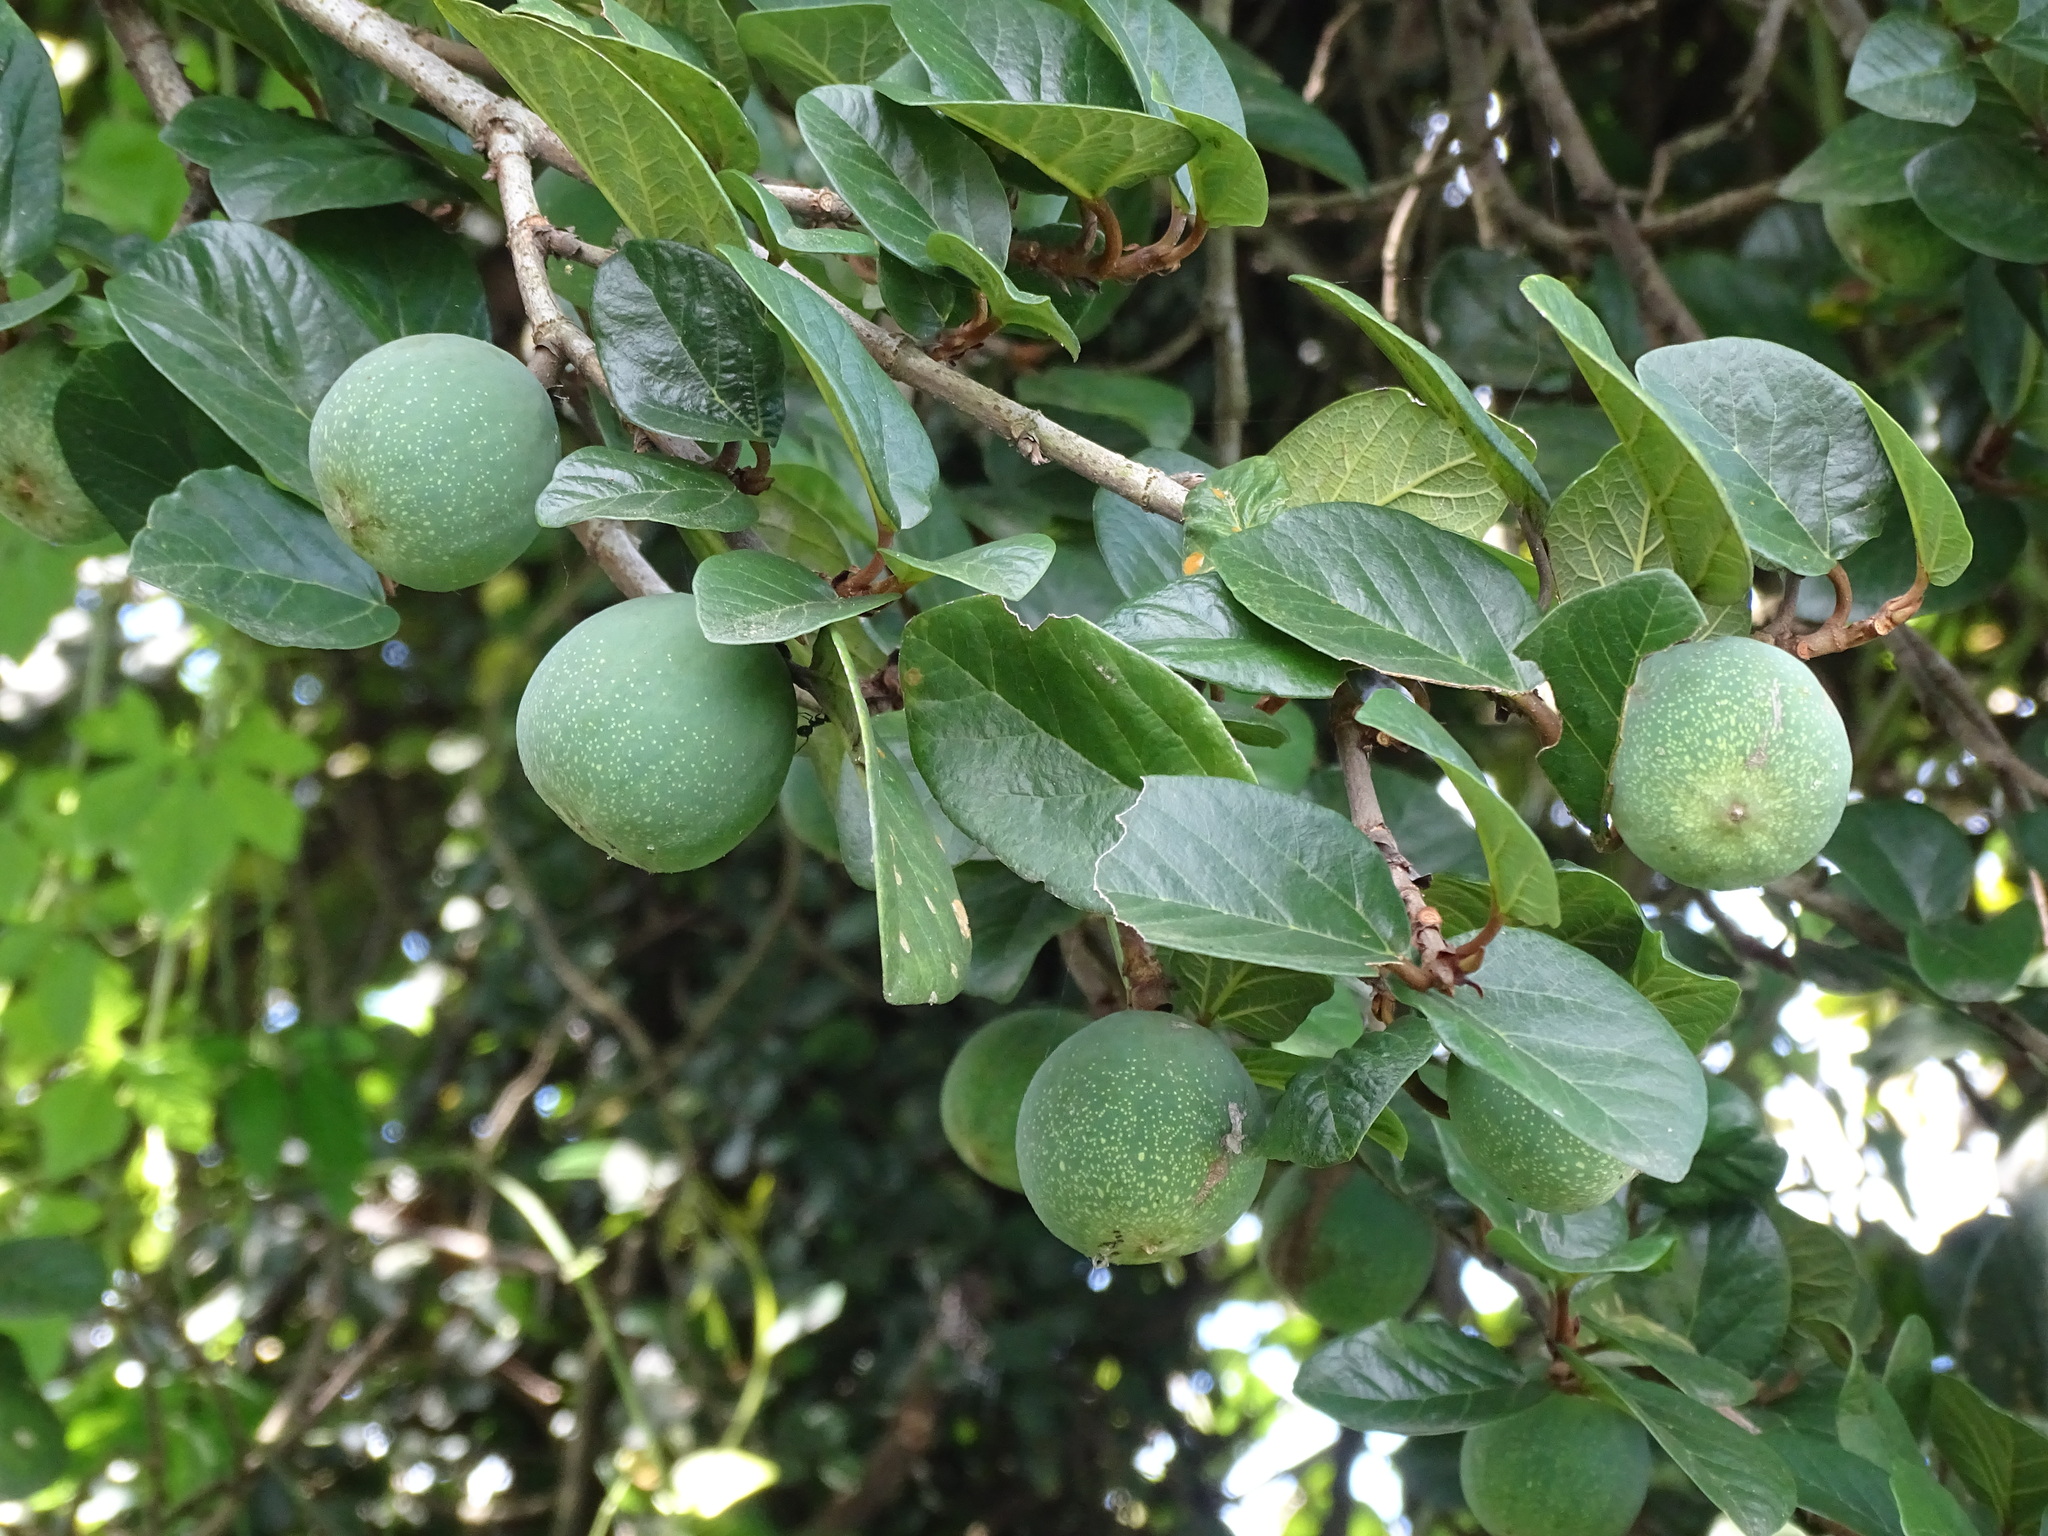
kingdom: Plantae
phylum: Tracheophyta
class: Magnoliopsida
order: Rosales
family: Moraceae
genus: Ficus
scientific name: Ficus pumila
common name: Climbingfig
